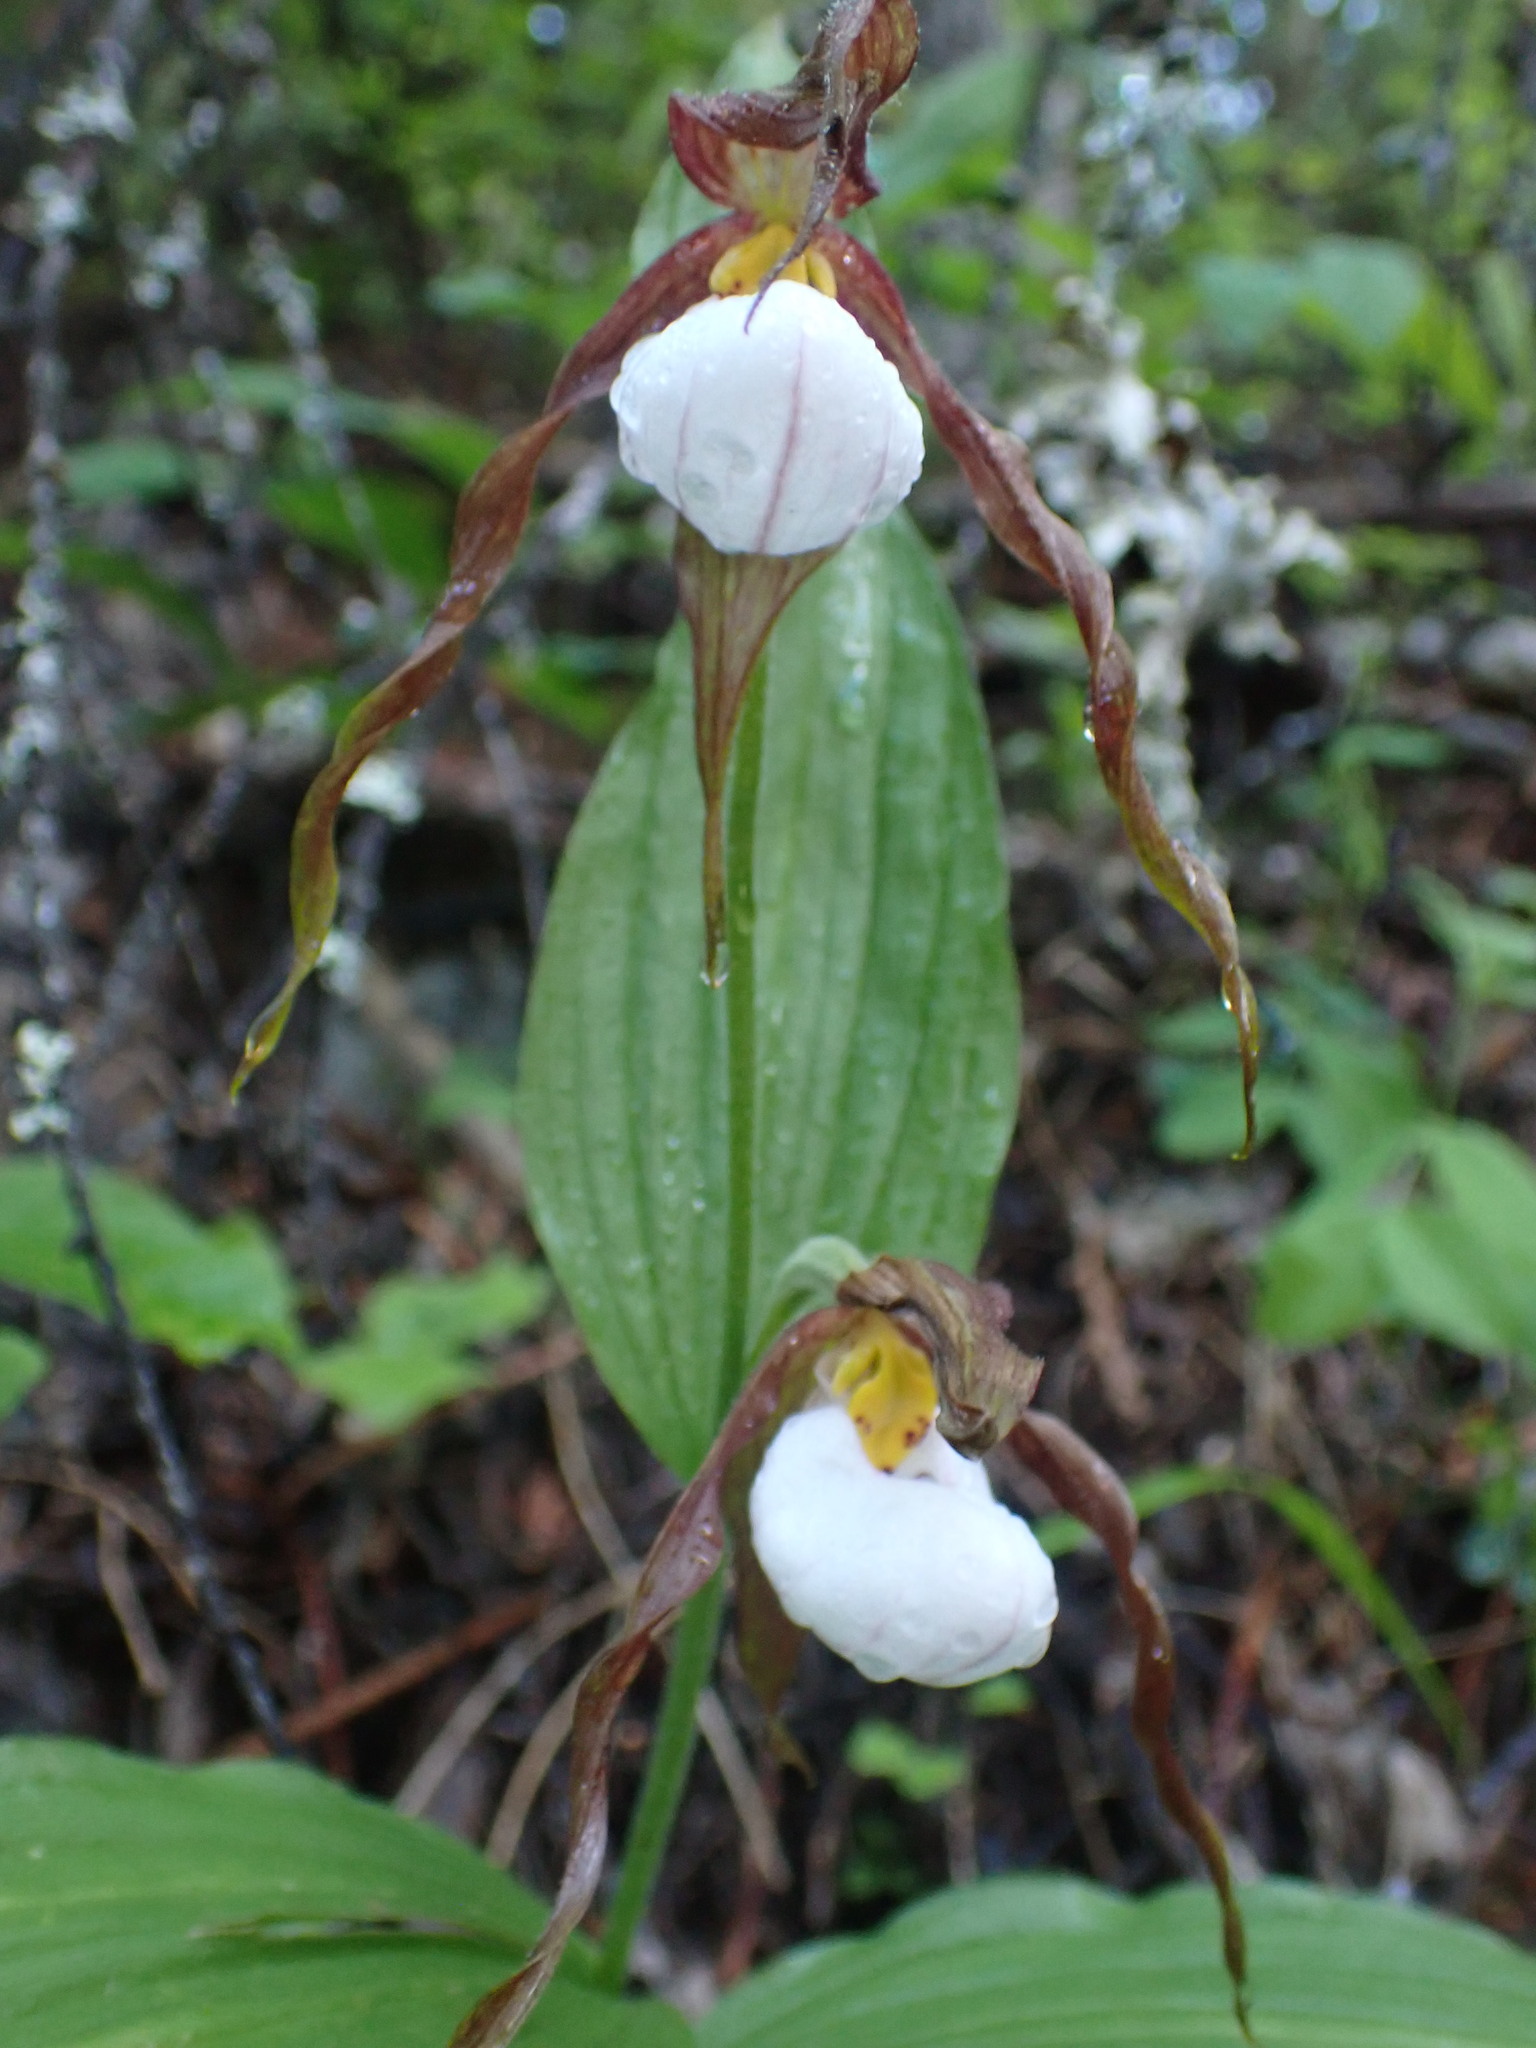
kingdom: Plantae
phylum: Tracheophyta
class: Liliopsida
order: Asparagales
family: Orchidaceae
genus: Cypripedium
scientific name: Cypripedium montanum
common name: Mountain lady's-slipper
